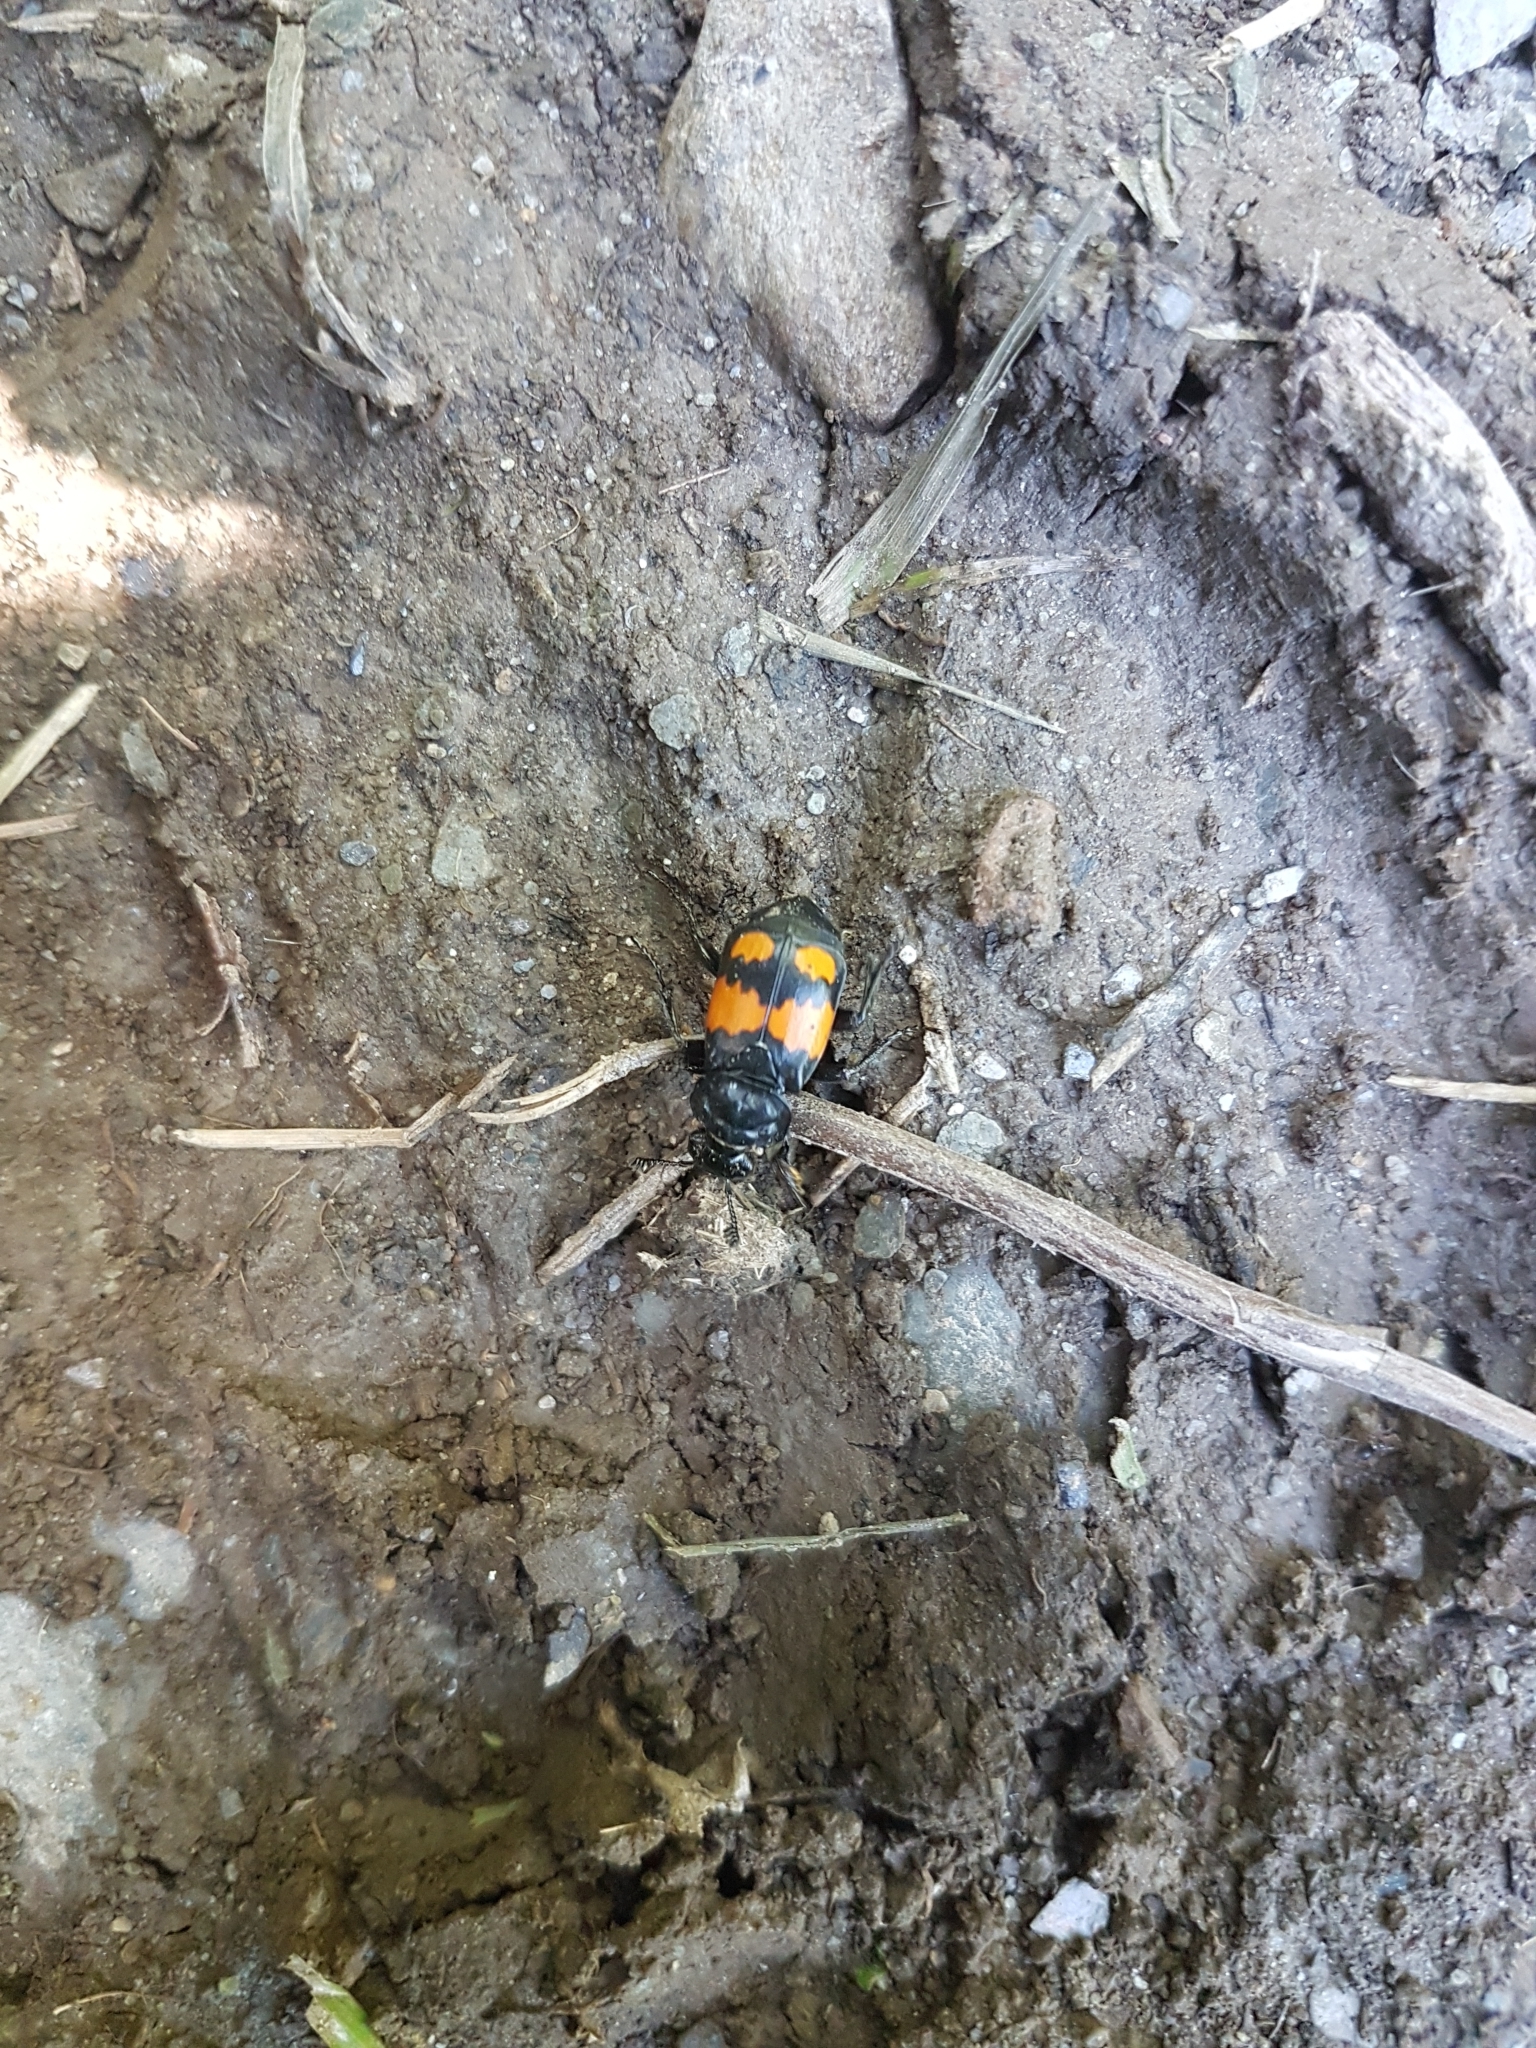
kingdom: Animalia
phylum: Arthropoda
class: Insecta
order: Coleoptera
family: Staphylinidae
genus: Nicrophorus
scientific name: Nicrophorus vespilloides
